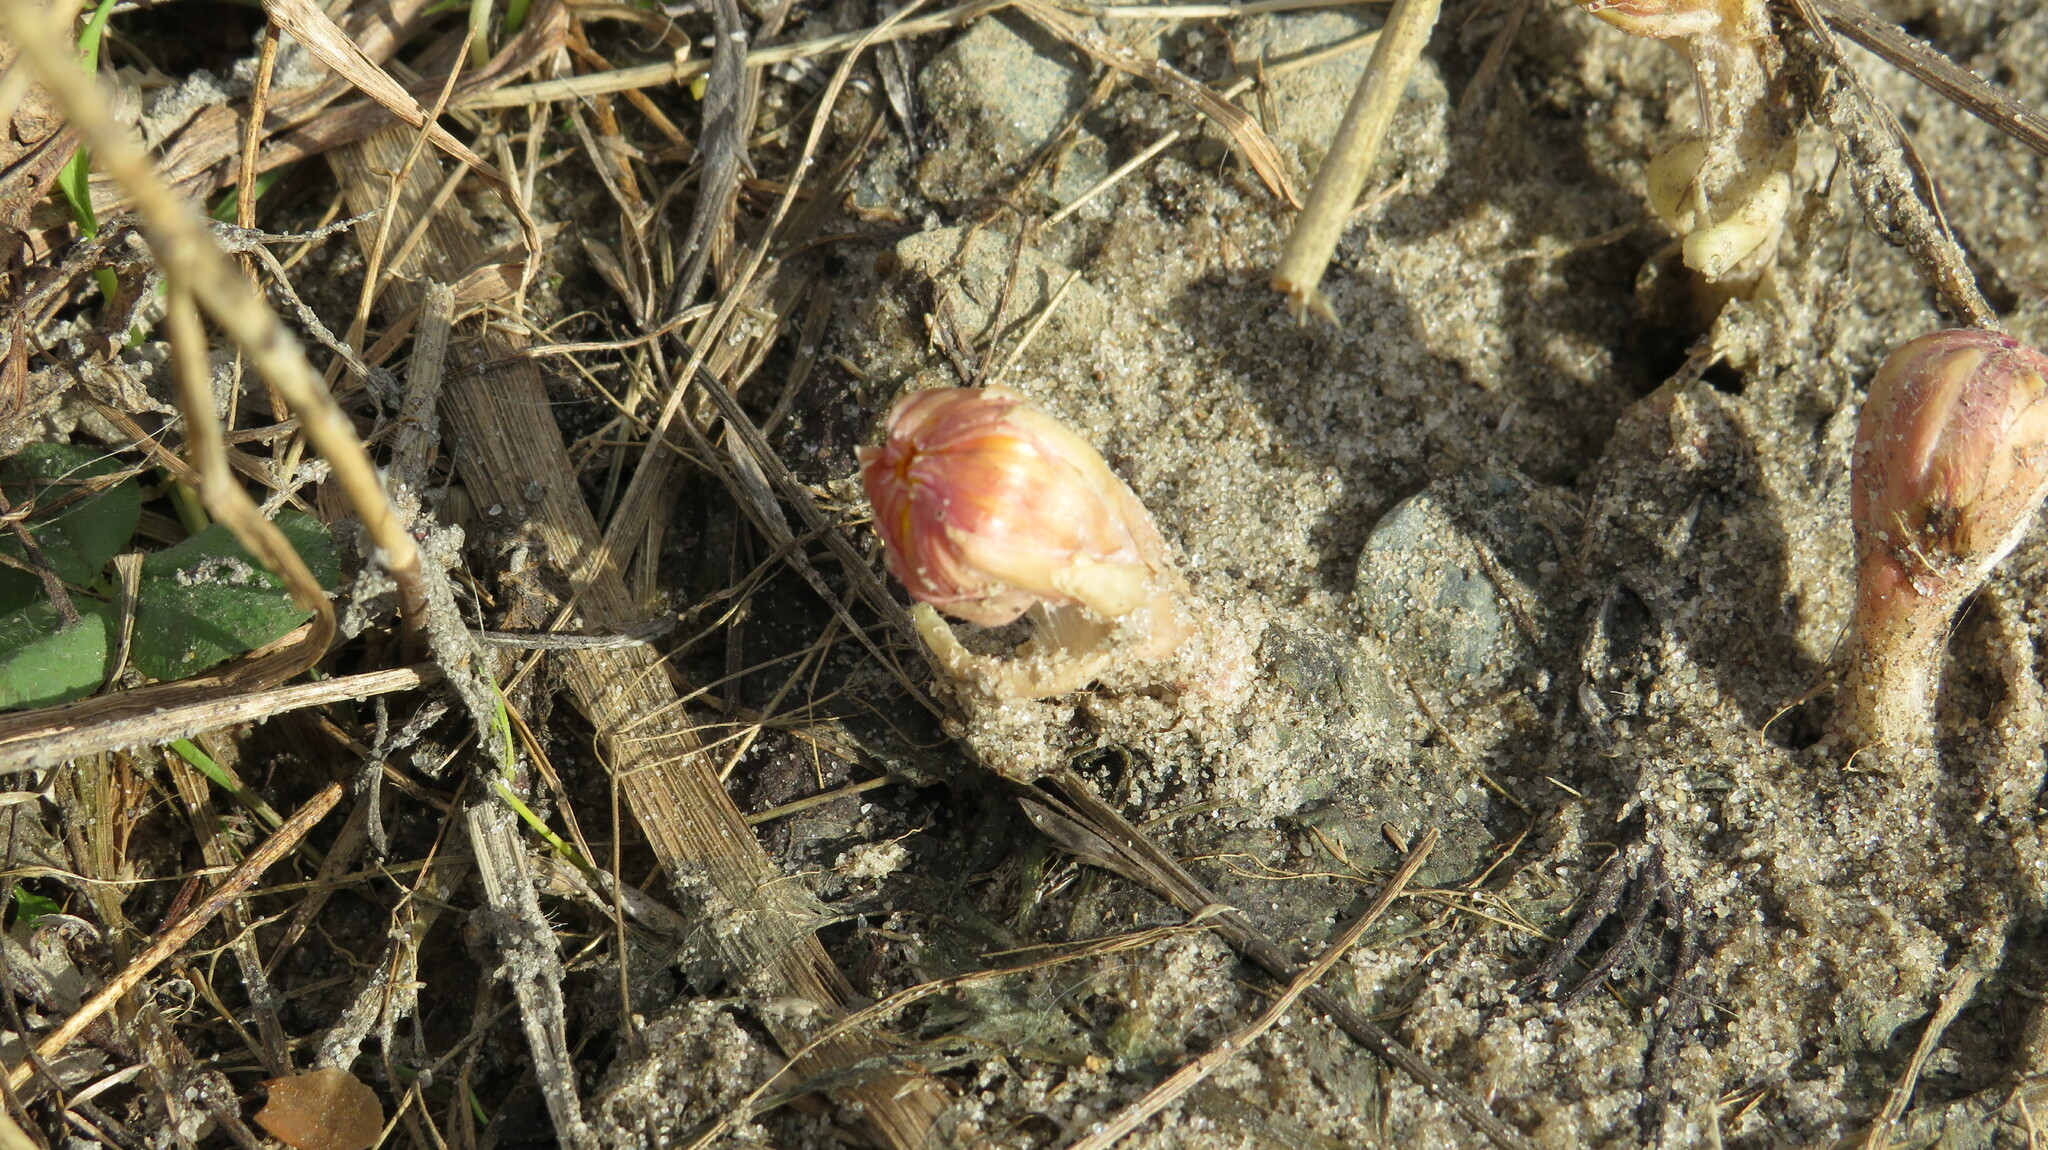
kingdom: Plantae
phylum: Tracheophyta
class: Magnoliopsida
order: Asterales
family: Asteraceae
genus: Tussilago
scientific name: Tussilago farfara
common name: Coltsfoot
